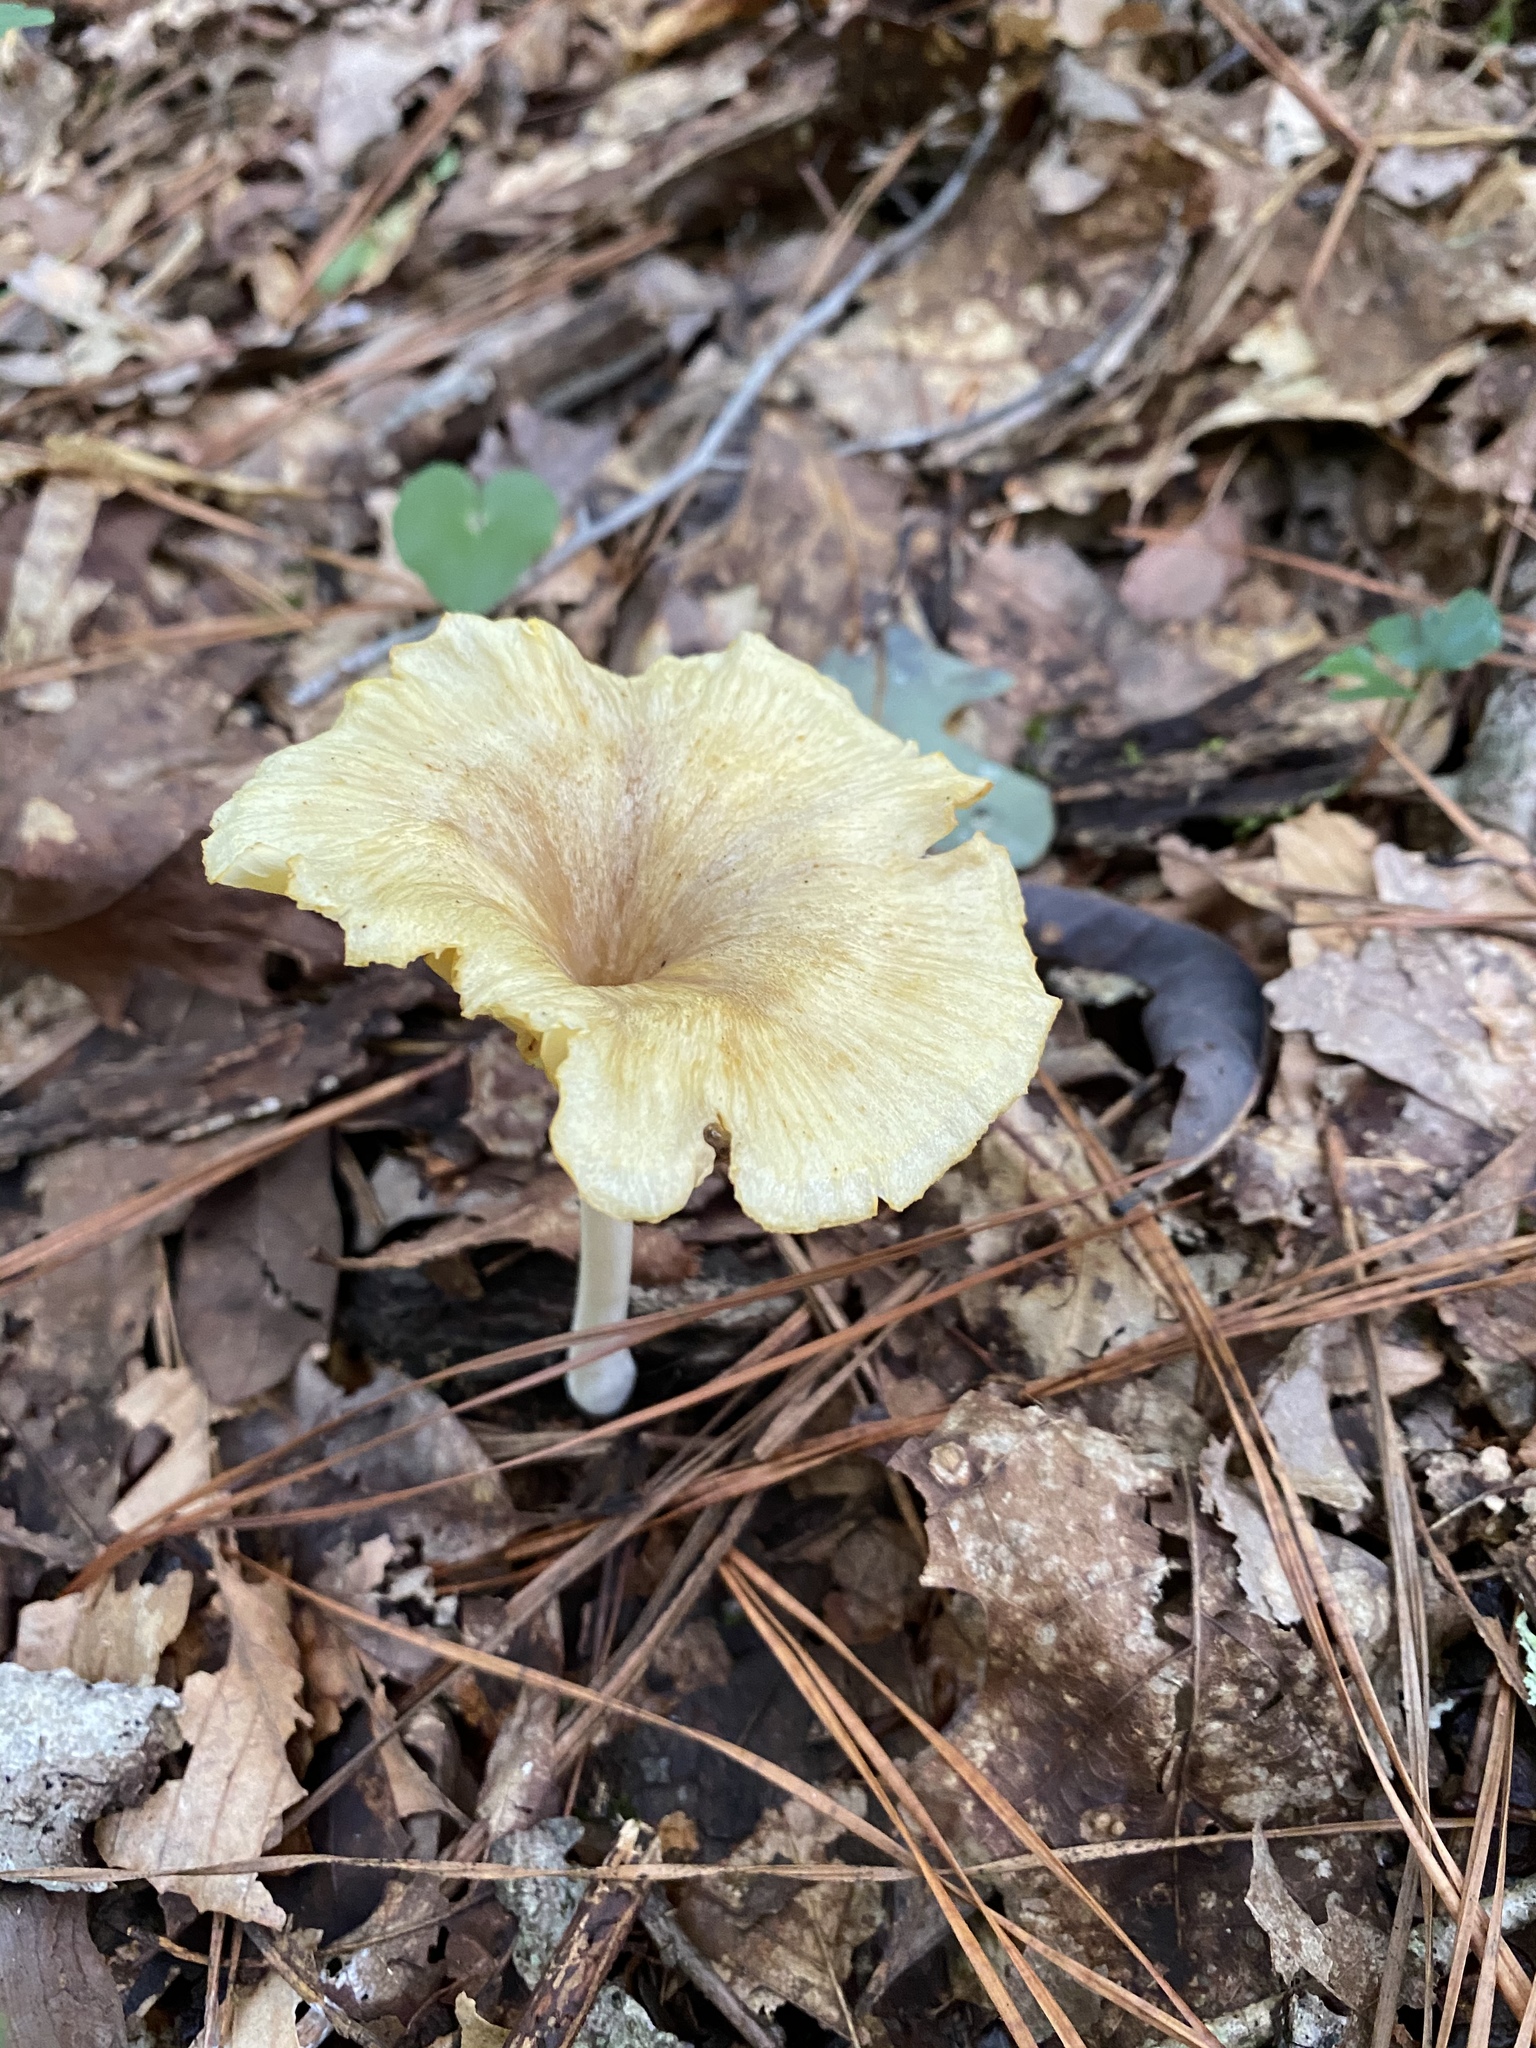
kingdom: Fungi
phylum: Basidiomycota
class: Agaricomycetes
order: Agaricales
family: Marasmiaceae
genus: Gerronema
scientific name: Gerronema strombodes
